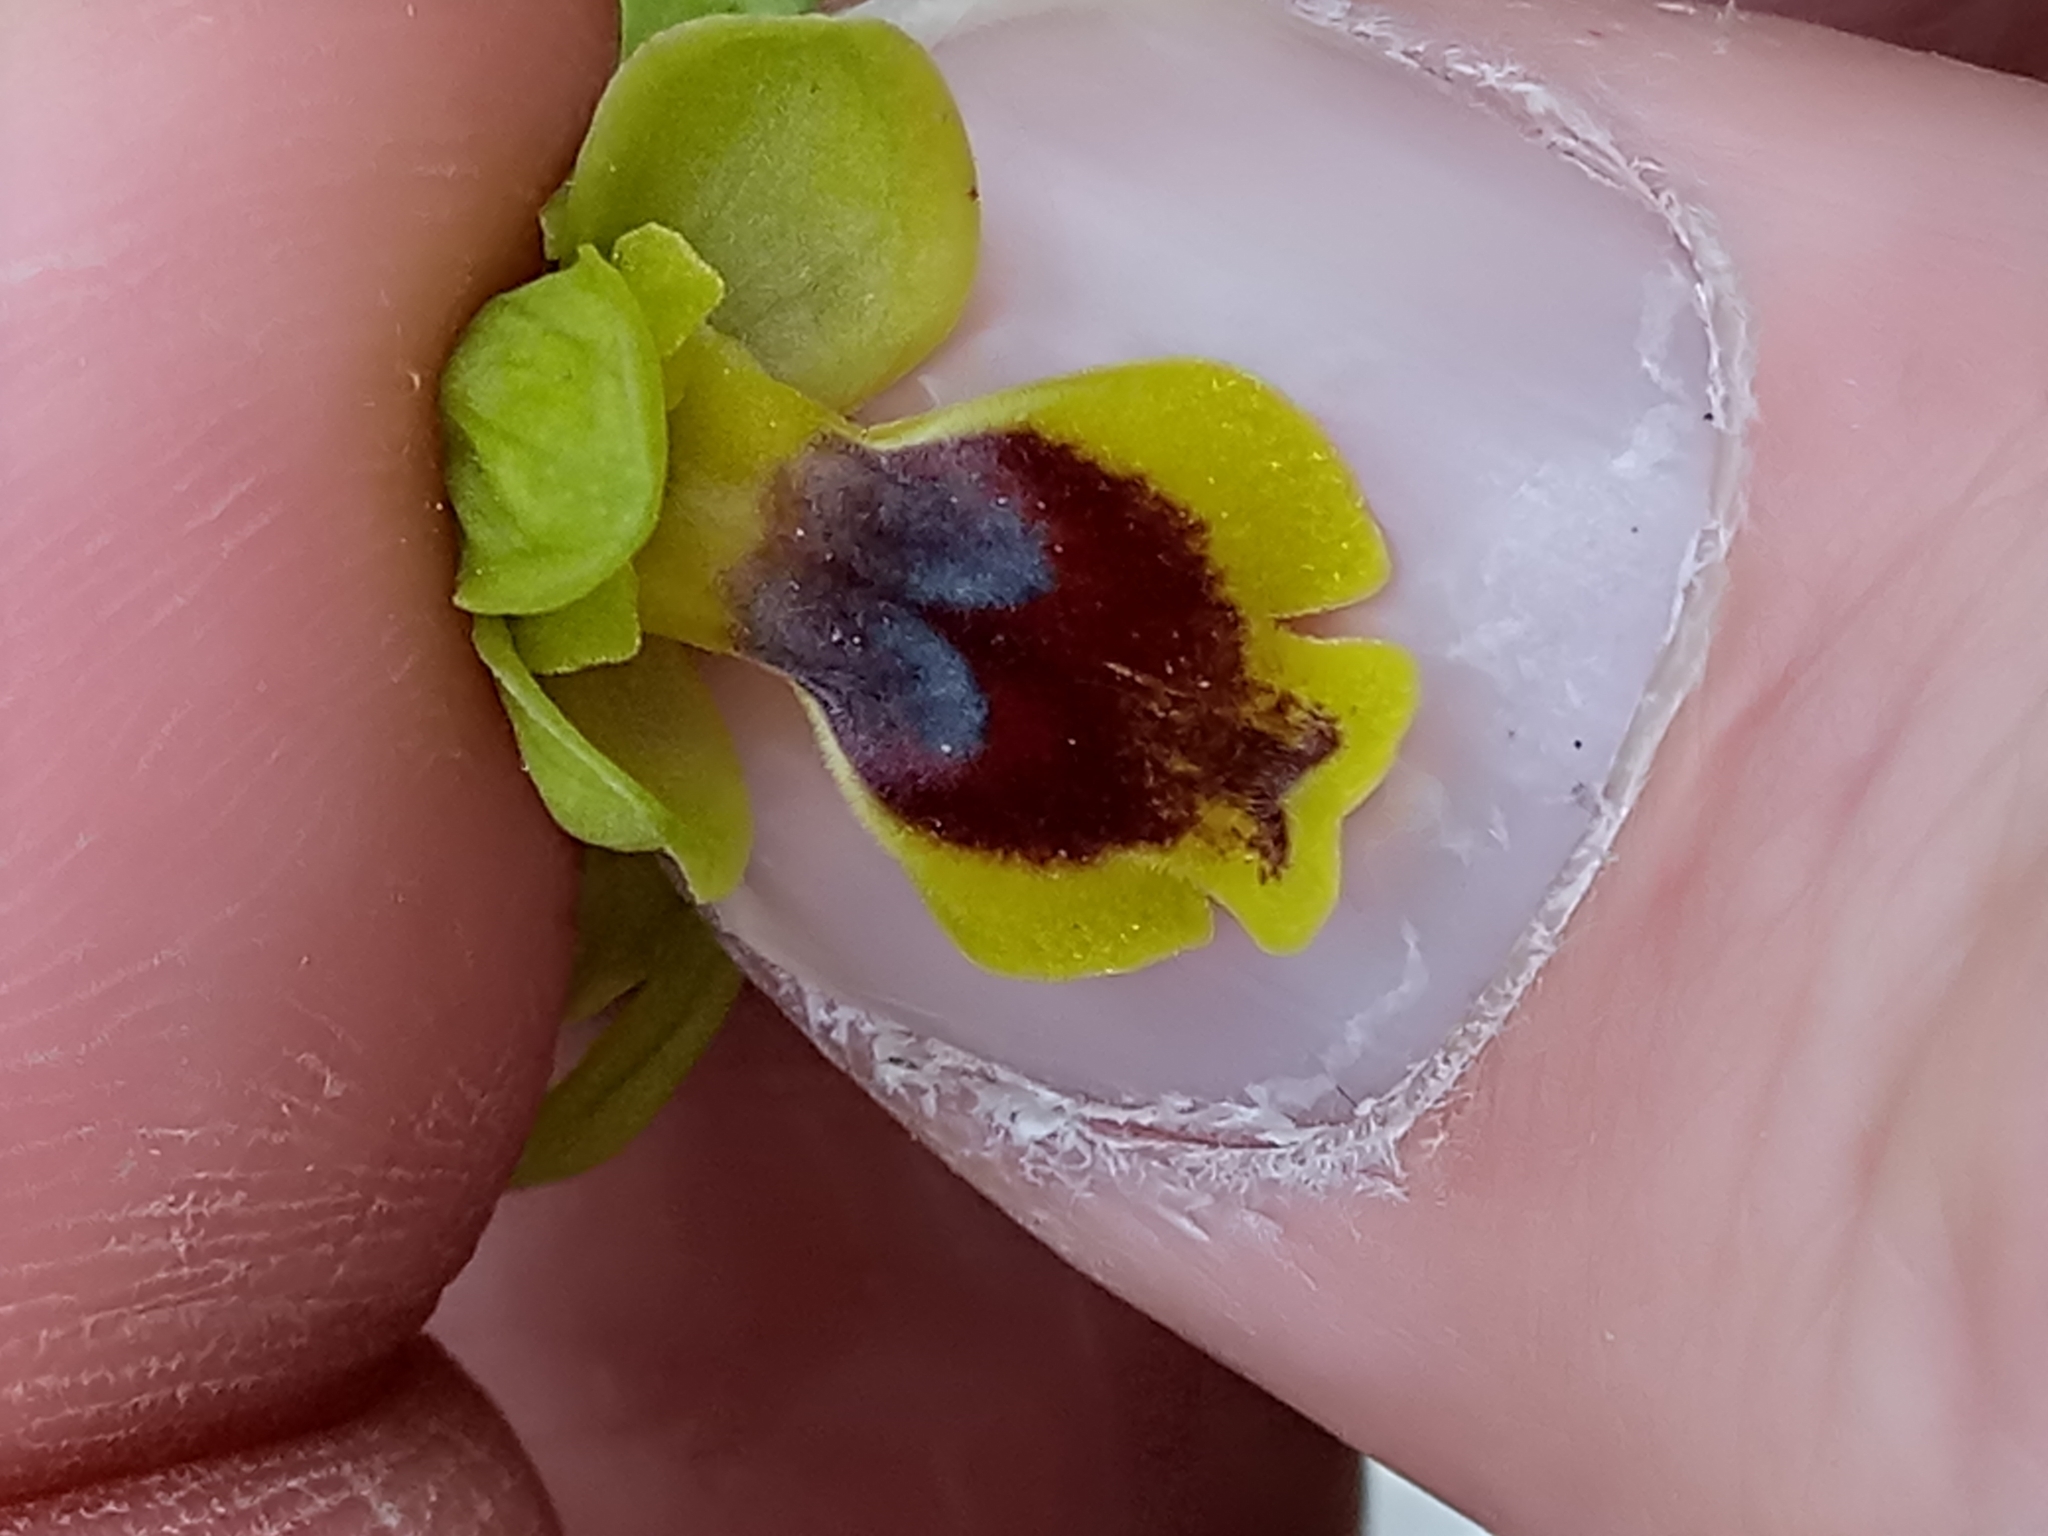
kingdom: Plantae
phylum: Tracheophyta
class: Liliopsida
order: Asparagales
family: Orchidaceae
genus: Ophrys
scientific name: Ophrys battandieri
